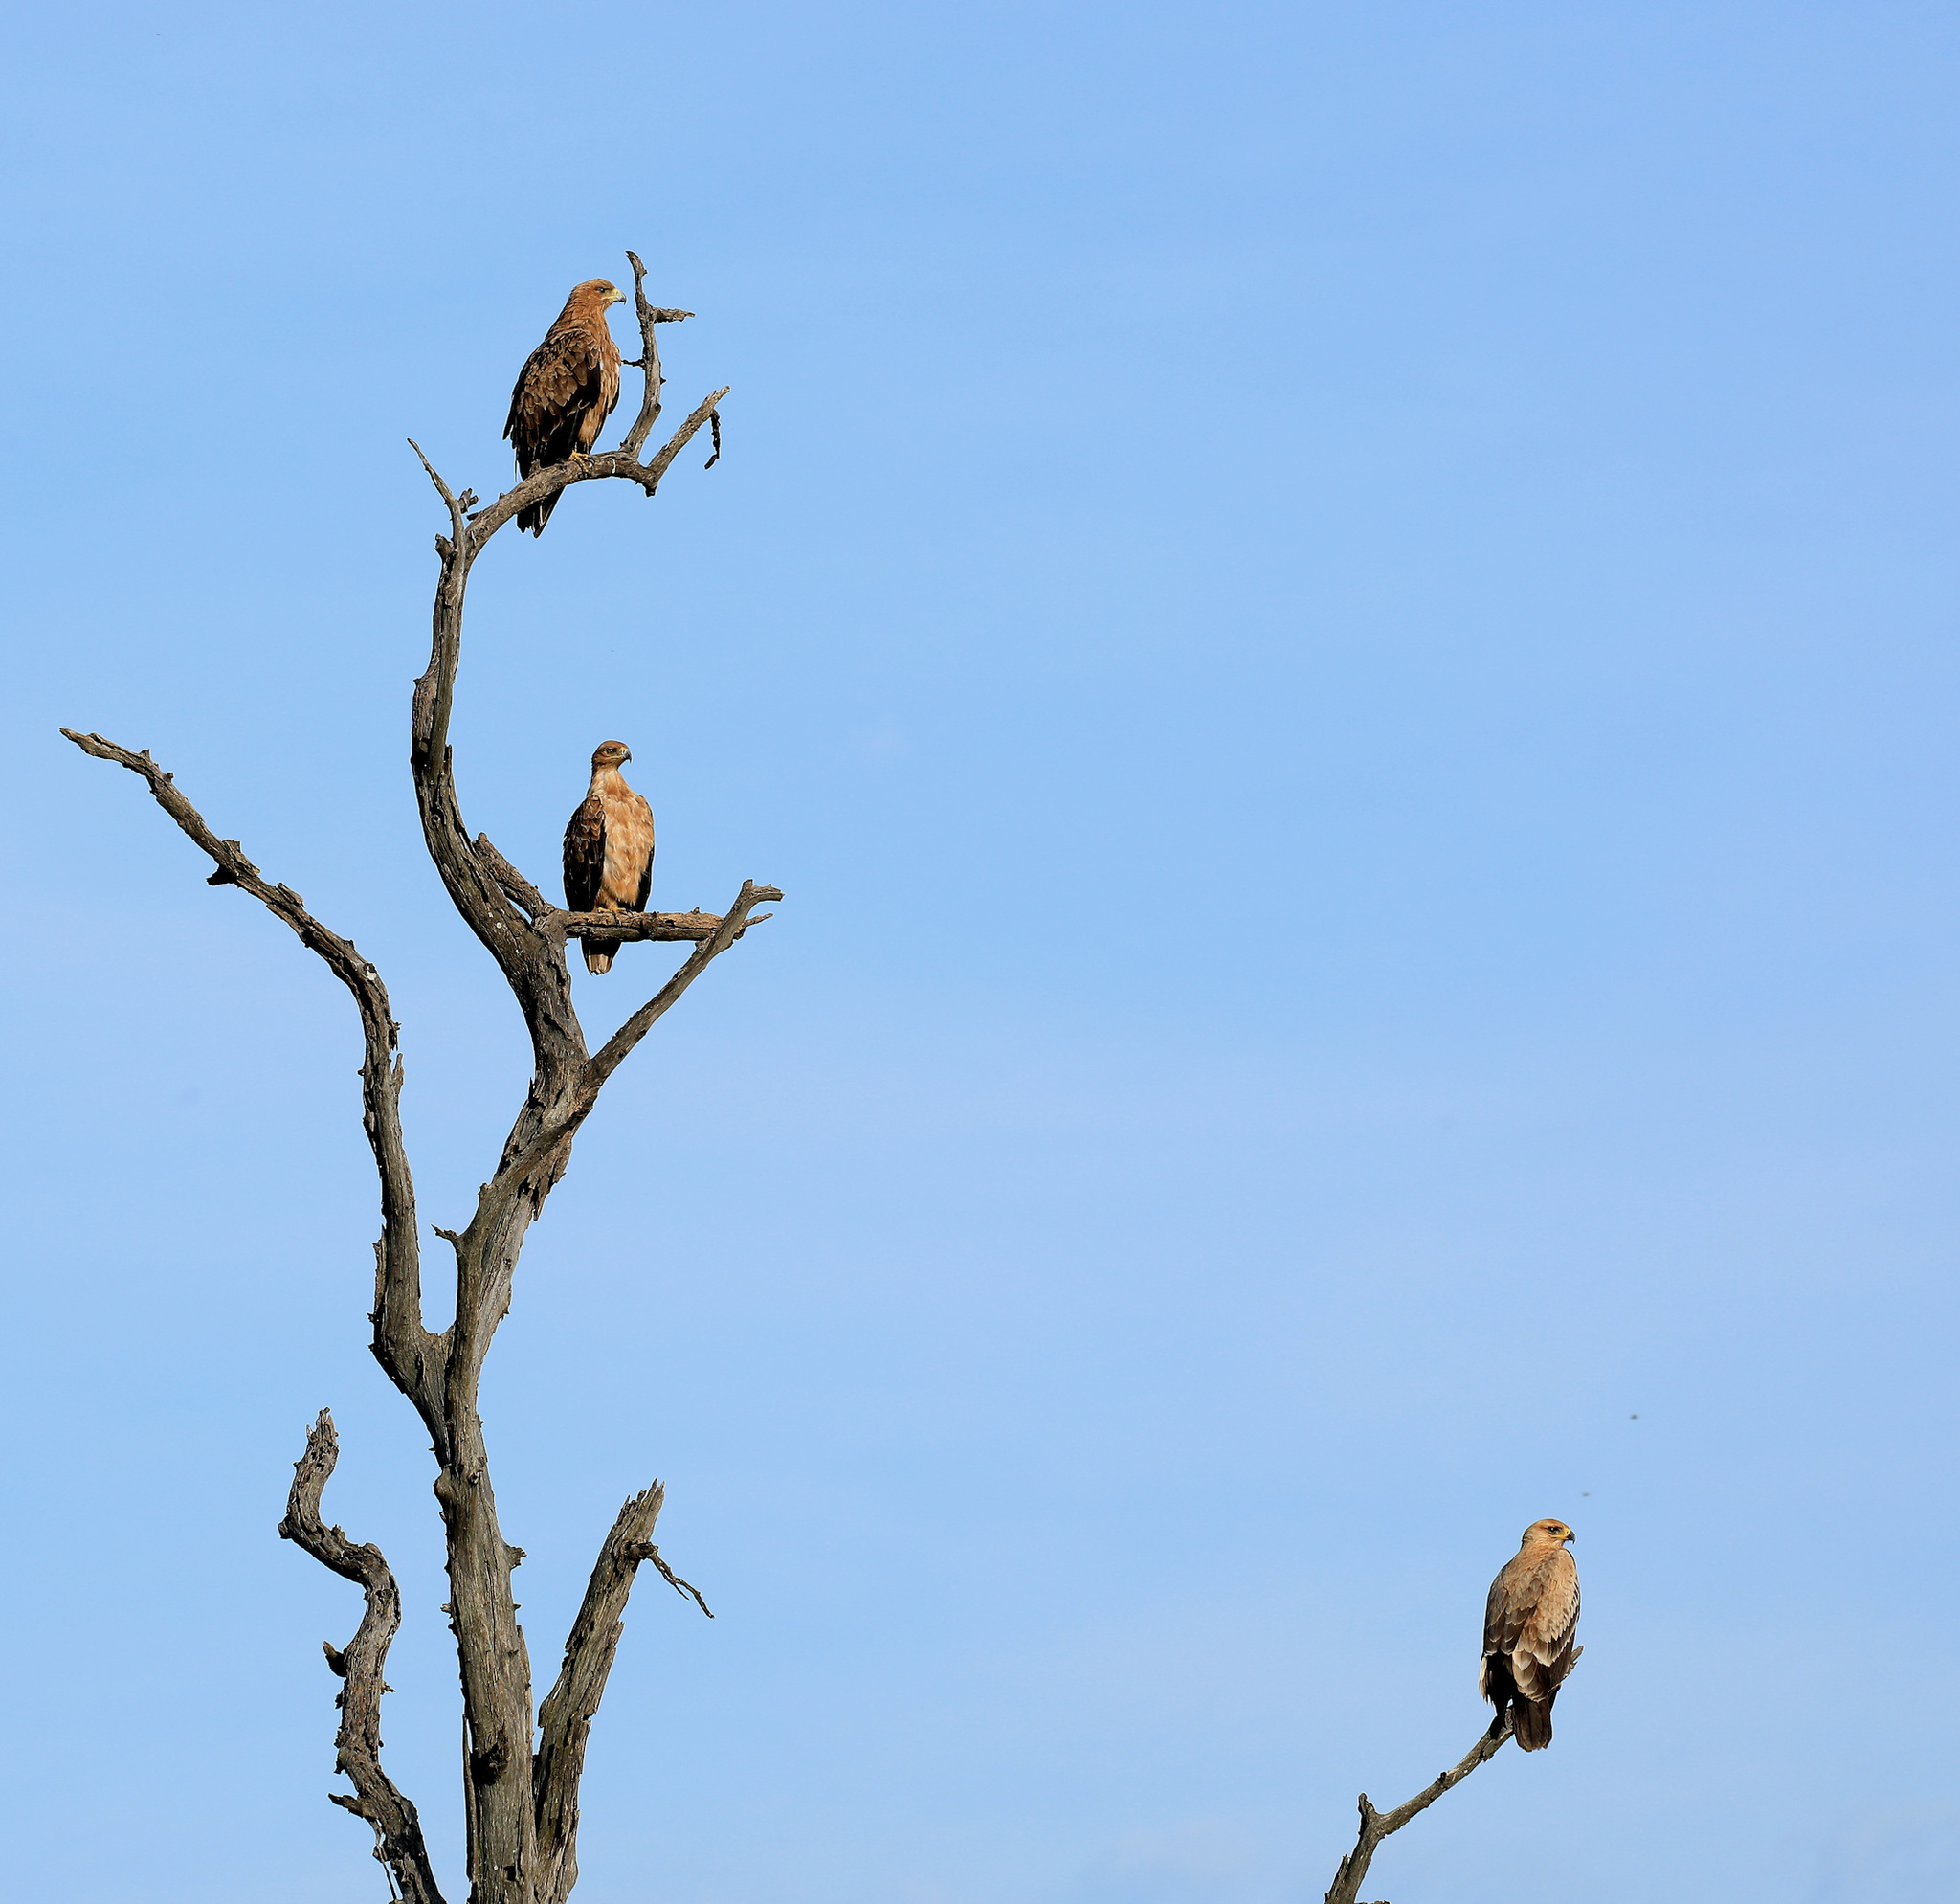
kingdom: Animalia
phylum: Chordata
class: Aves
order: Accipitriformes
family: Accipitridae
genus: Aquila
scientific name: Aquila rapax
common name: Tawny eagle
